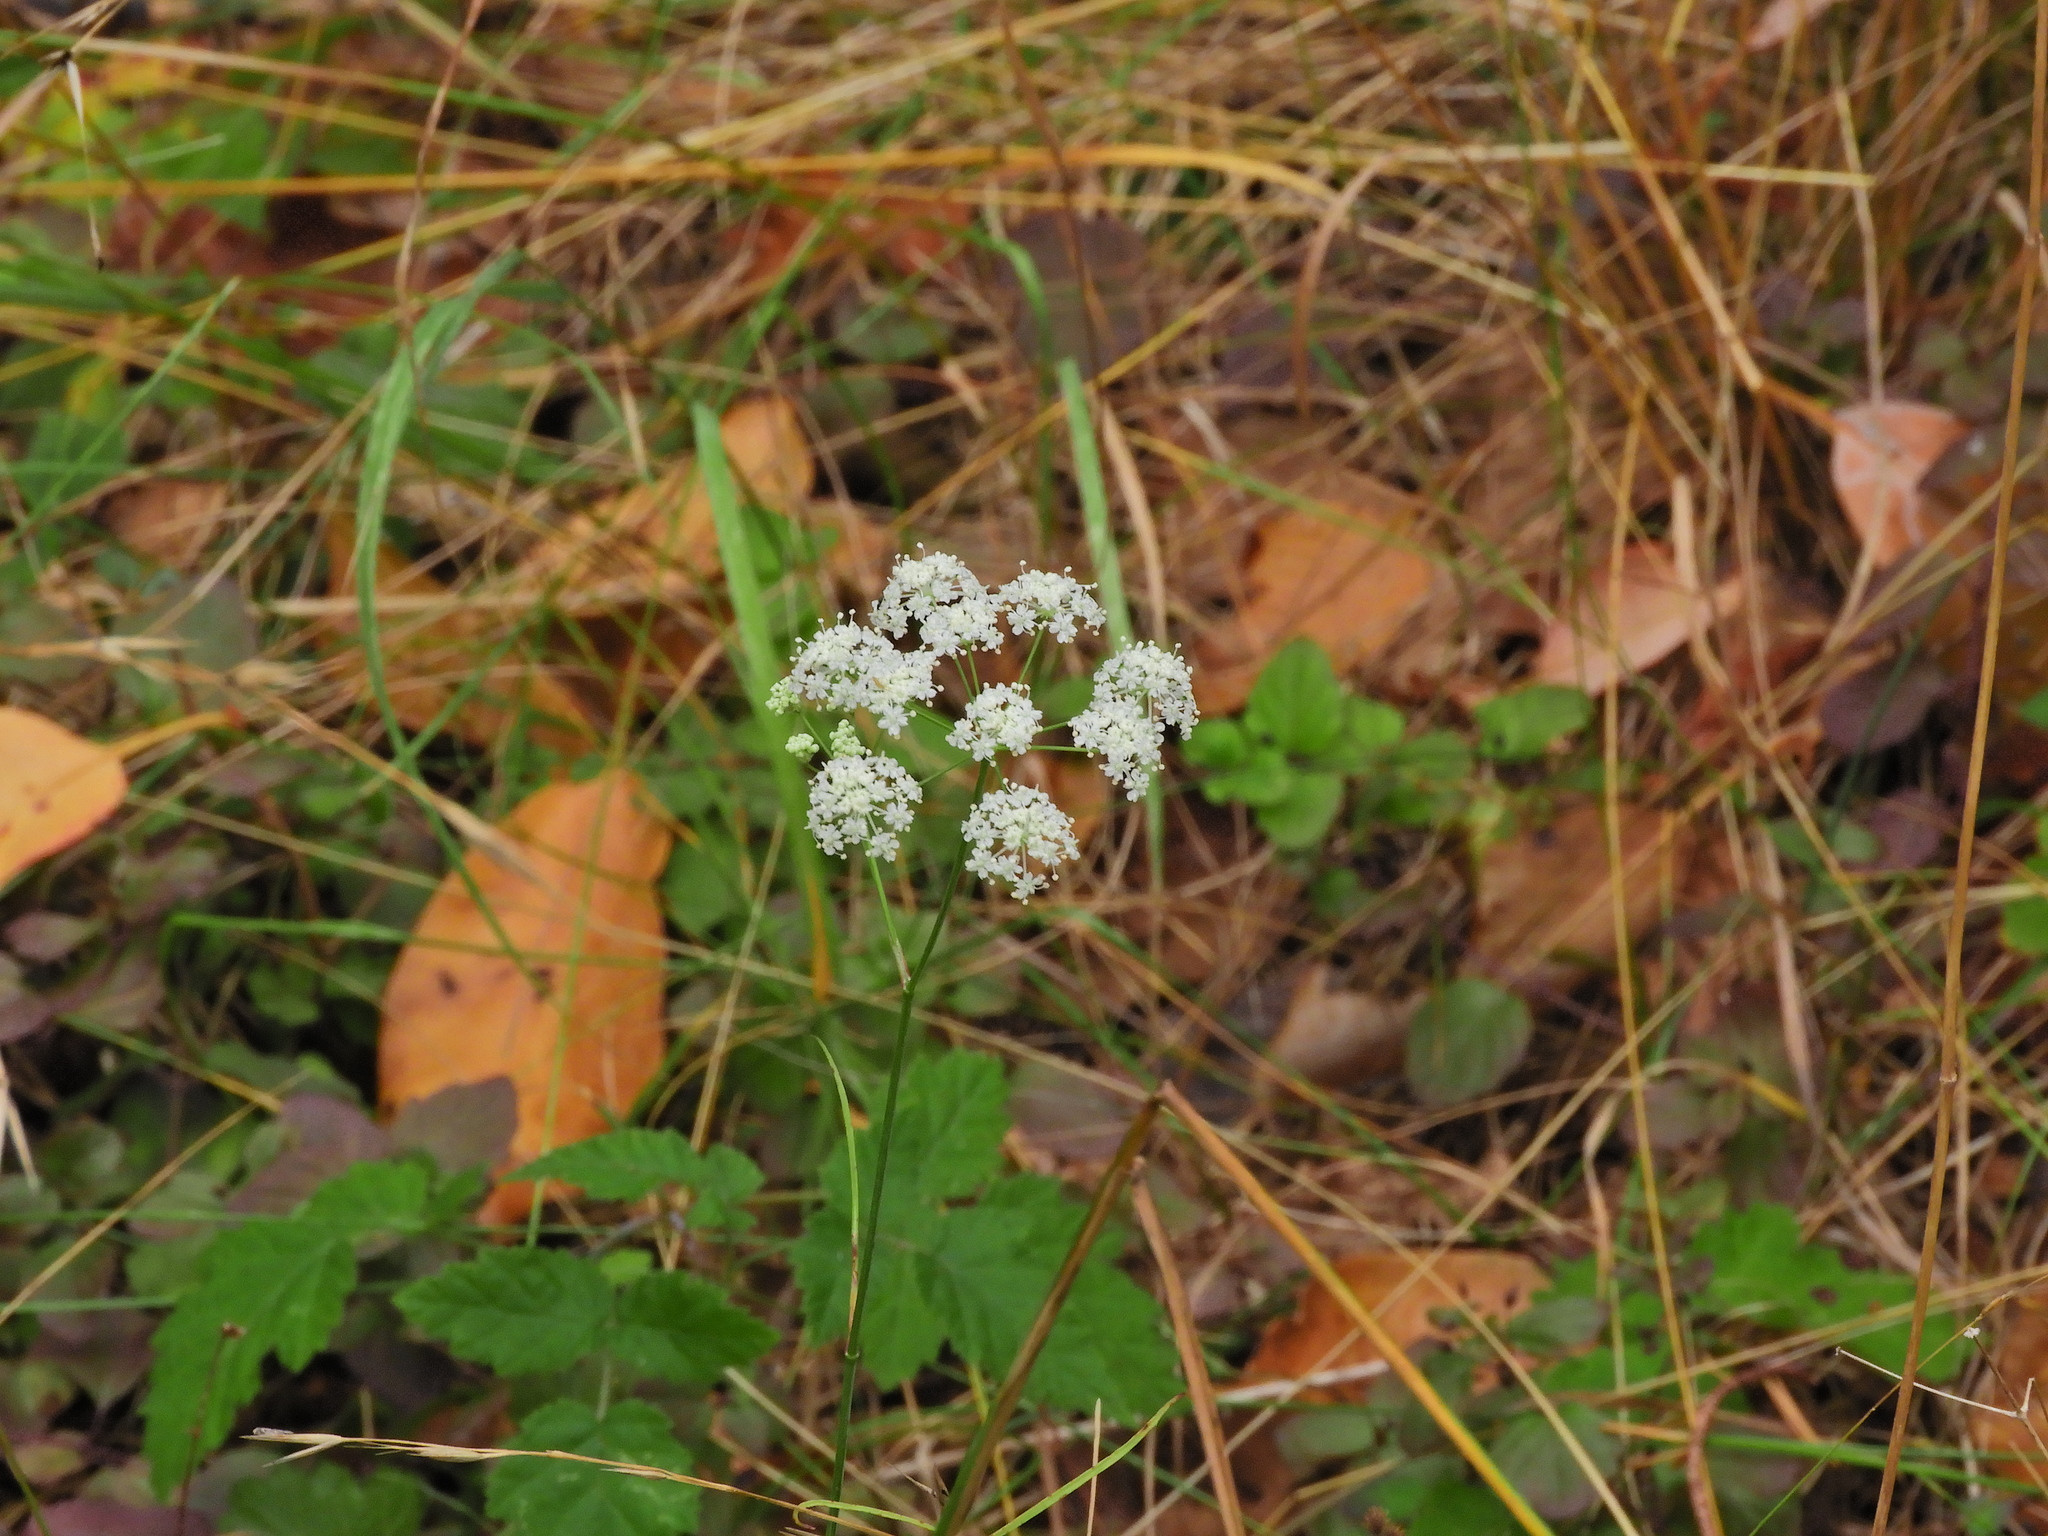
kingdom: Plantae
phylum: Tracheophyta
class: Magnoliopsida
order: Apiales
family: Apiaceae
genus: Perideridia
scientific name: Perideridia gairdneri
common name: False caraway
